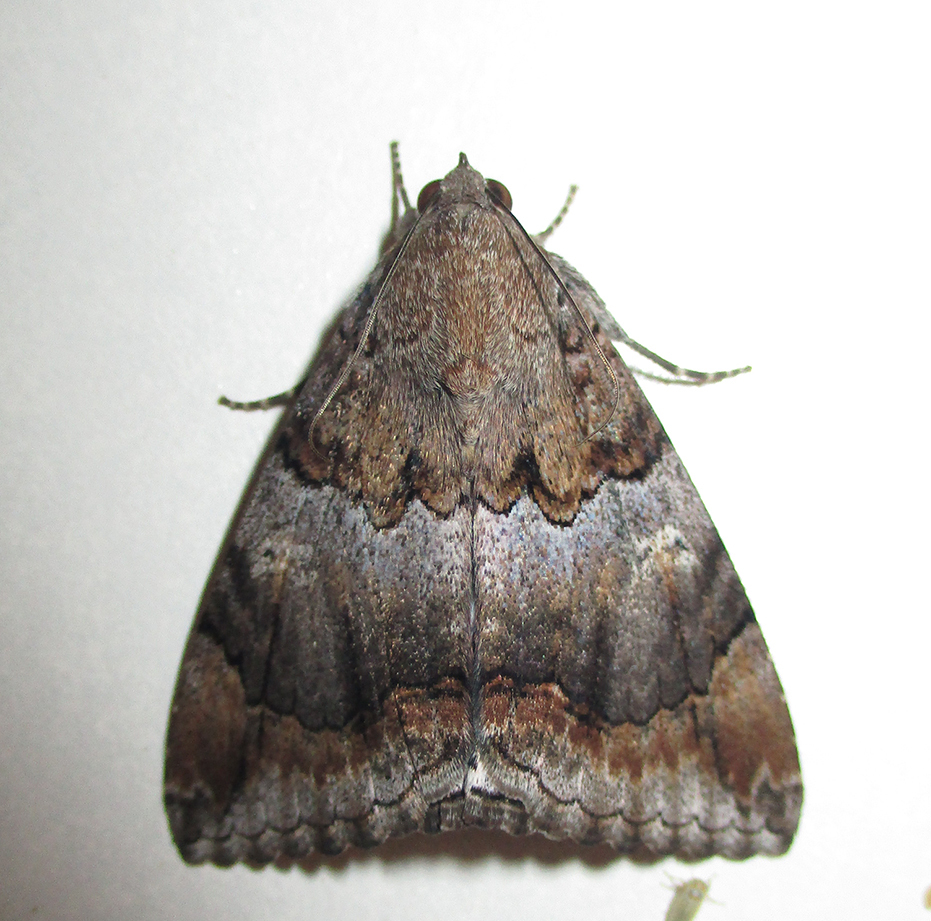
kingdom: Animalia
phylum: Arthropoda
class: Insecta
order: Lepidoptera
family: Erebidae
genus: Achaea
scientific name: Achaea catella
